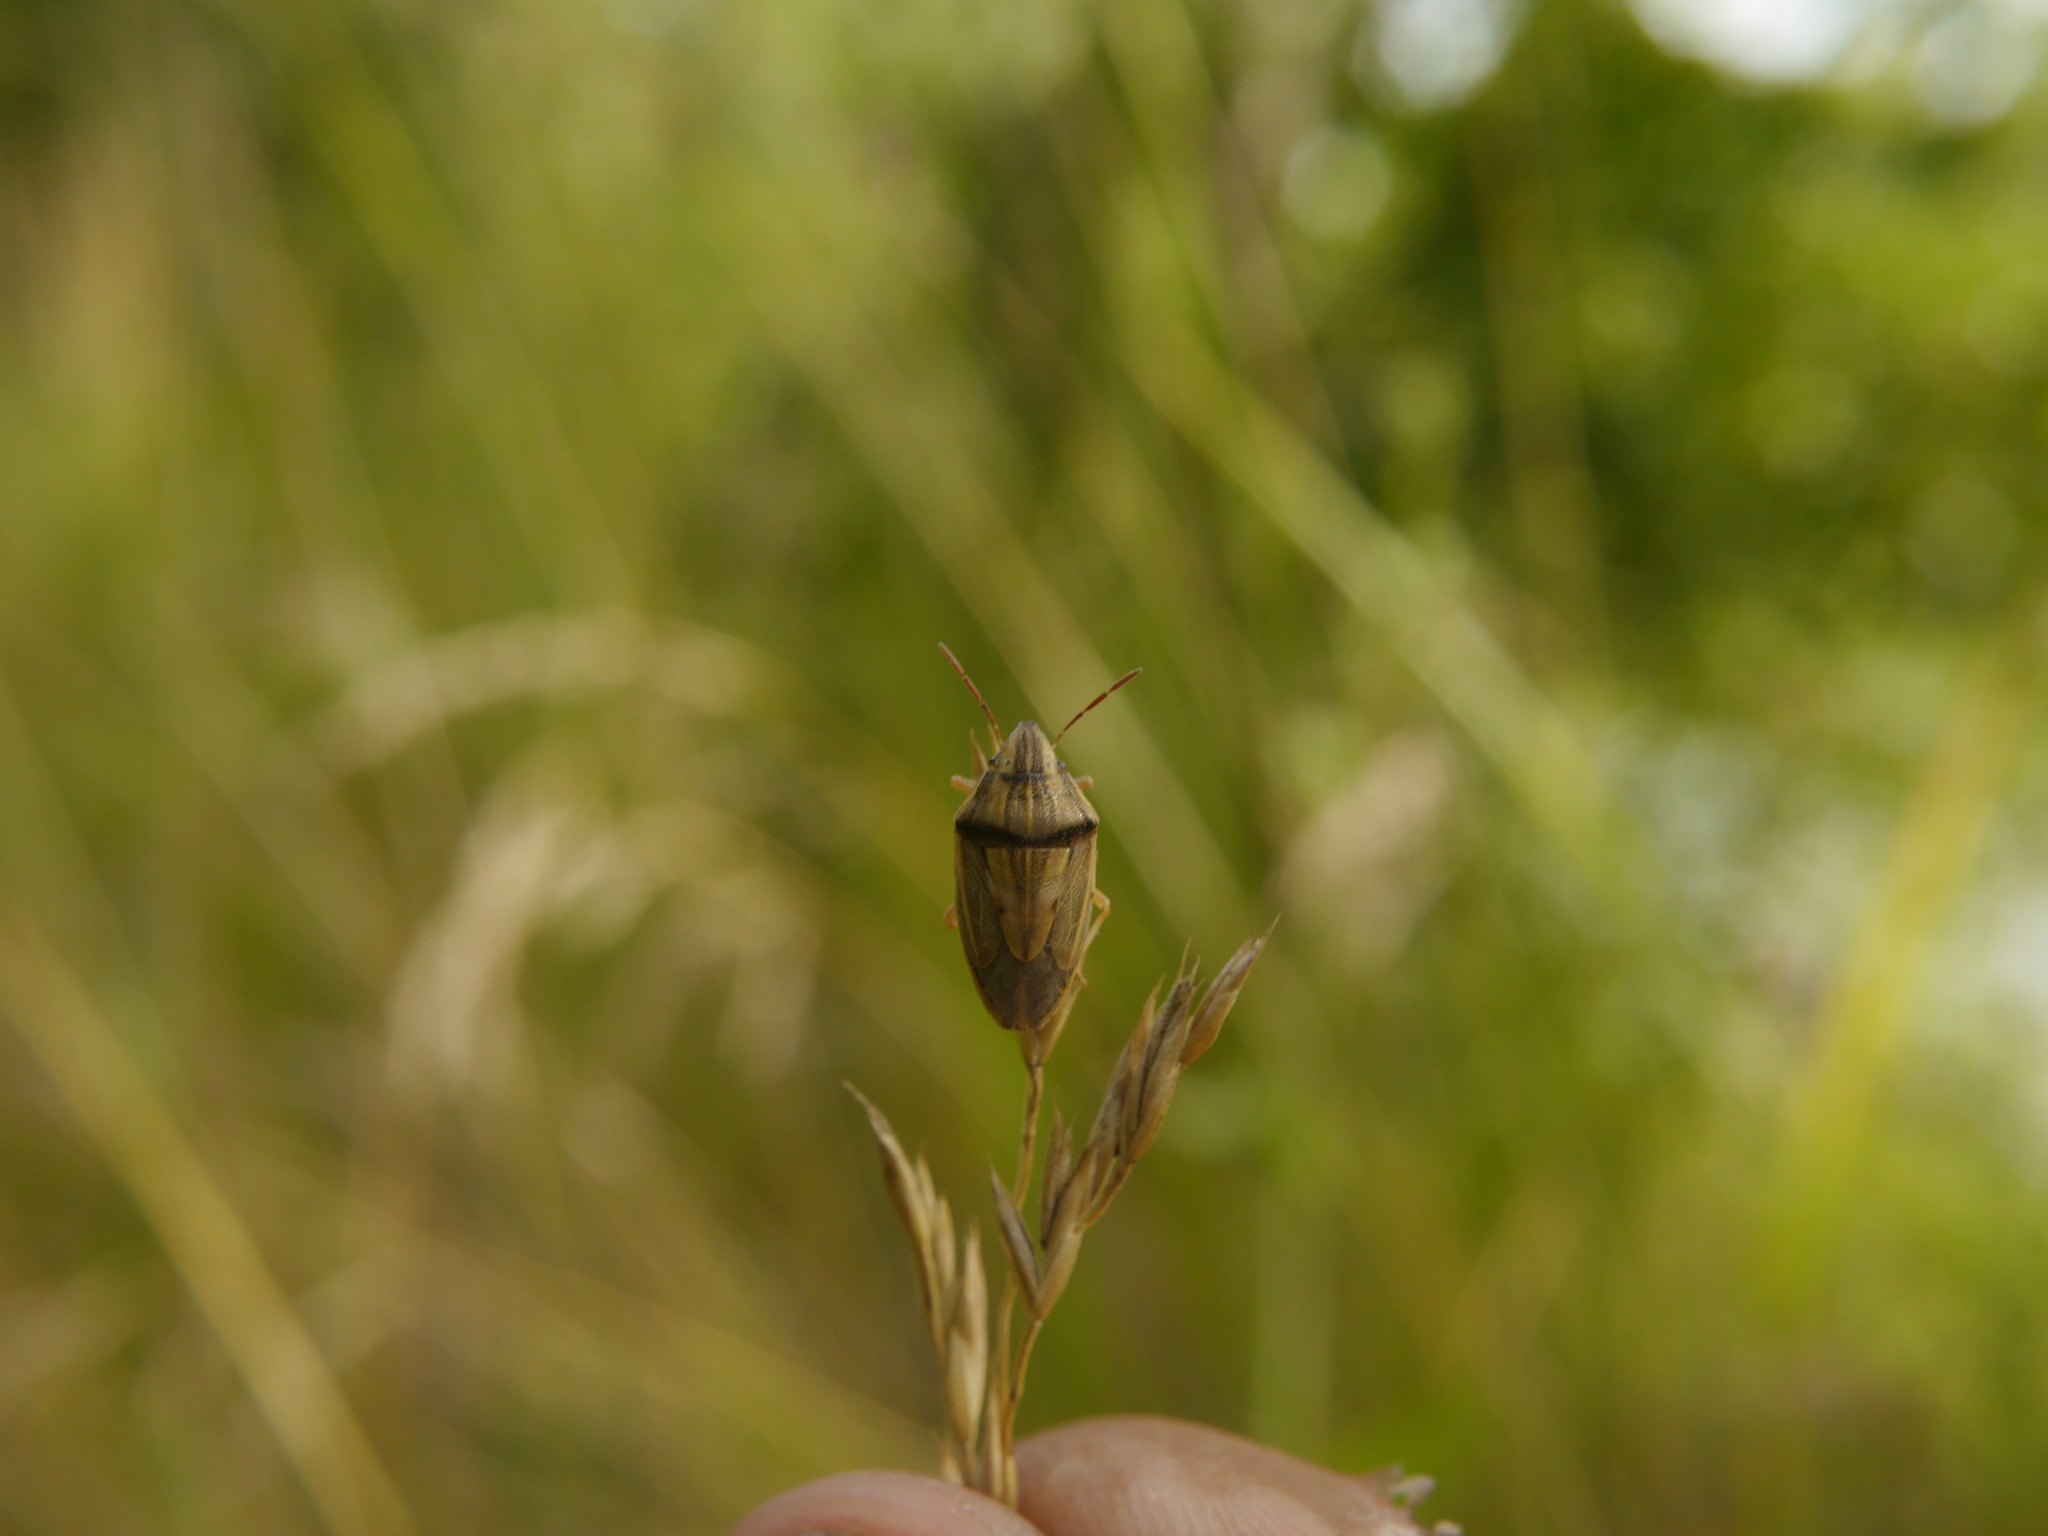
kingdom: Animalia
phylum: Arthropoda
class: Insecta
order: Hemiptera
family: Pentatomidae
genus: Aelia
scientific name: Aelia acuminata
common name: Bishop's mitre
